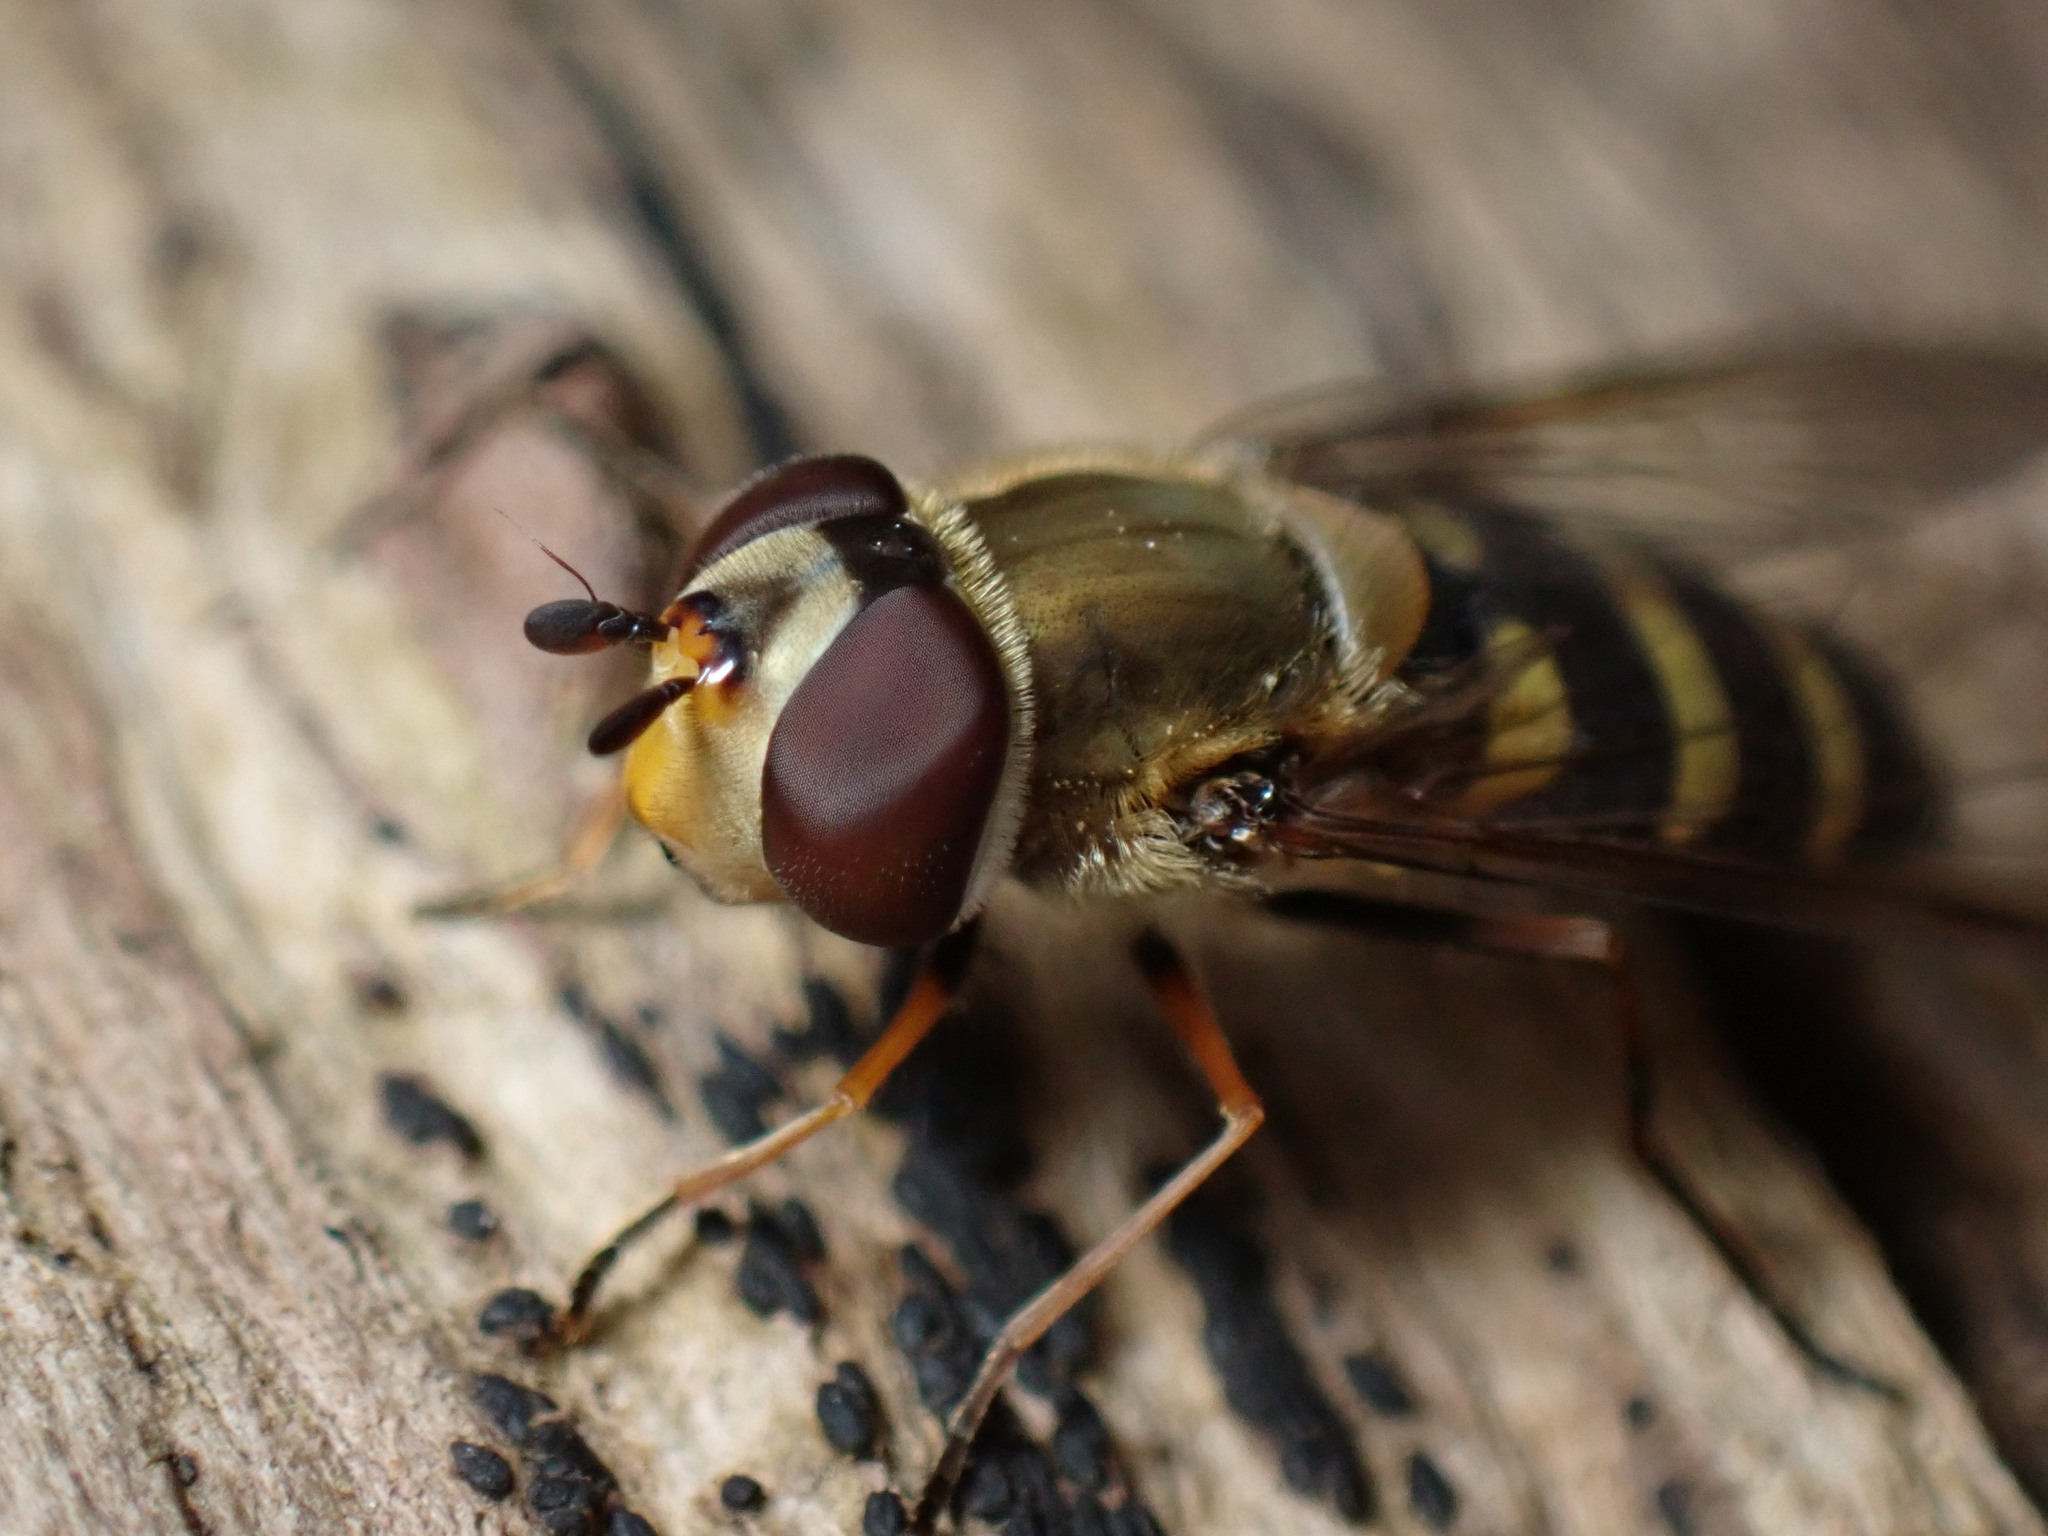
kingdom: Animalia
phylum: Arthropoda
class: Insecta
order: Diptera
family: Syrphidae
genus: Syrphus
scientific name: Syrphus torvus
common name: Hairy-eyed flower fly
